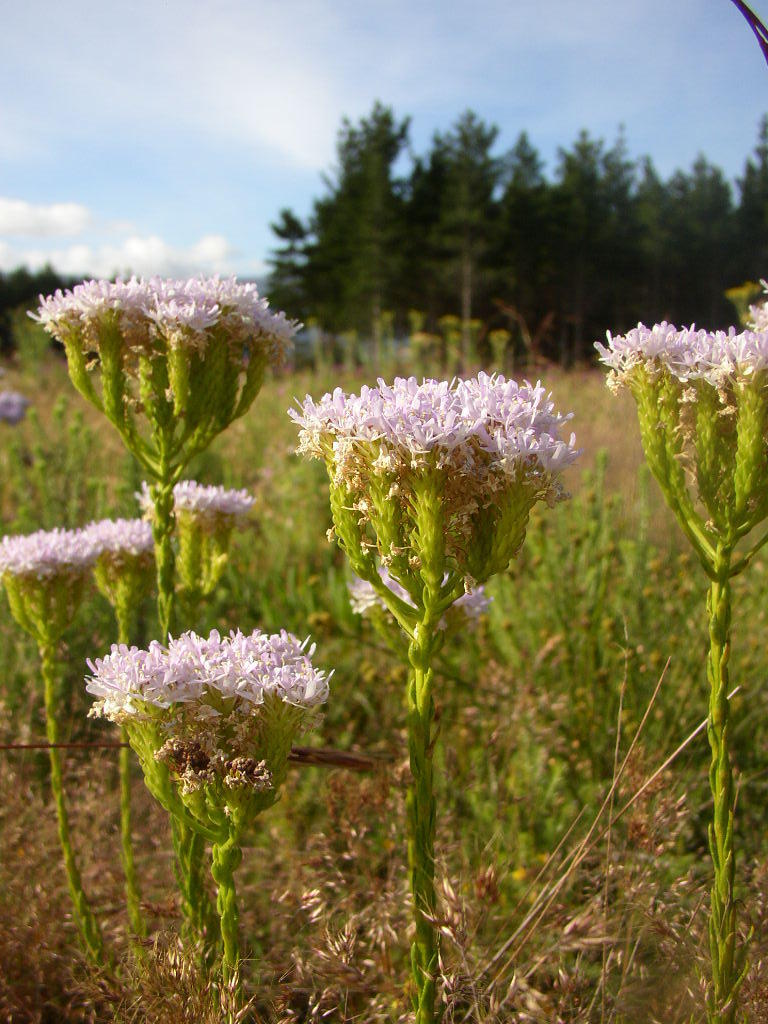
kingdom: Plantae
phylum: Tracheophyta
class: Magnoliopsida
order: Lamiales
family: Scrophulariaceae
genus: Pseudoselago
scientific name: Pseudoselago spuria
